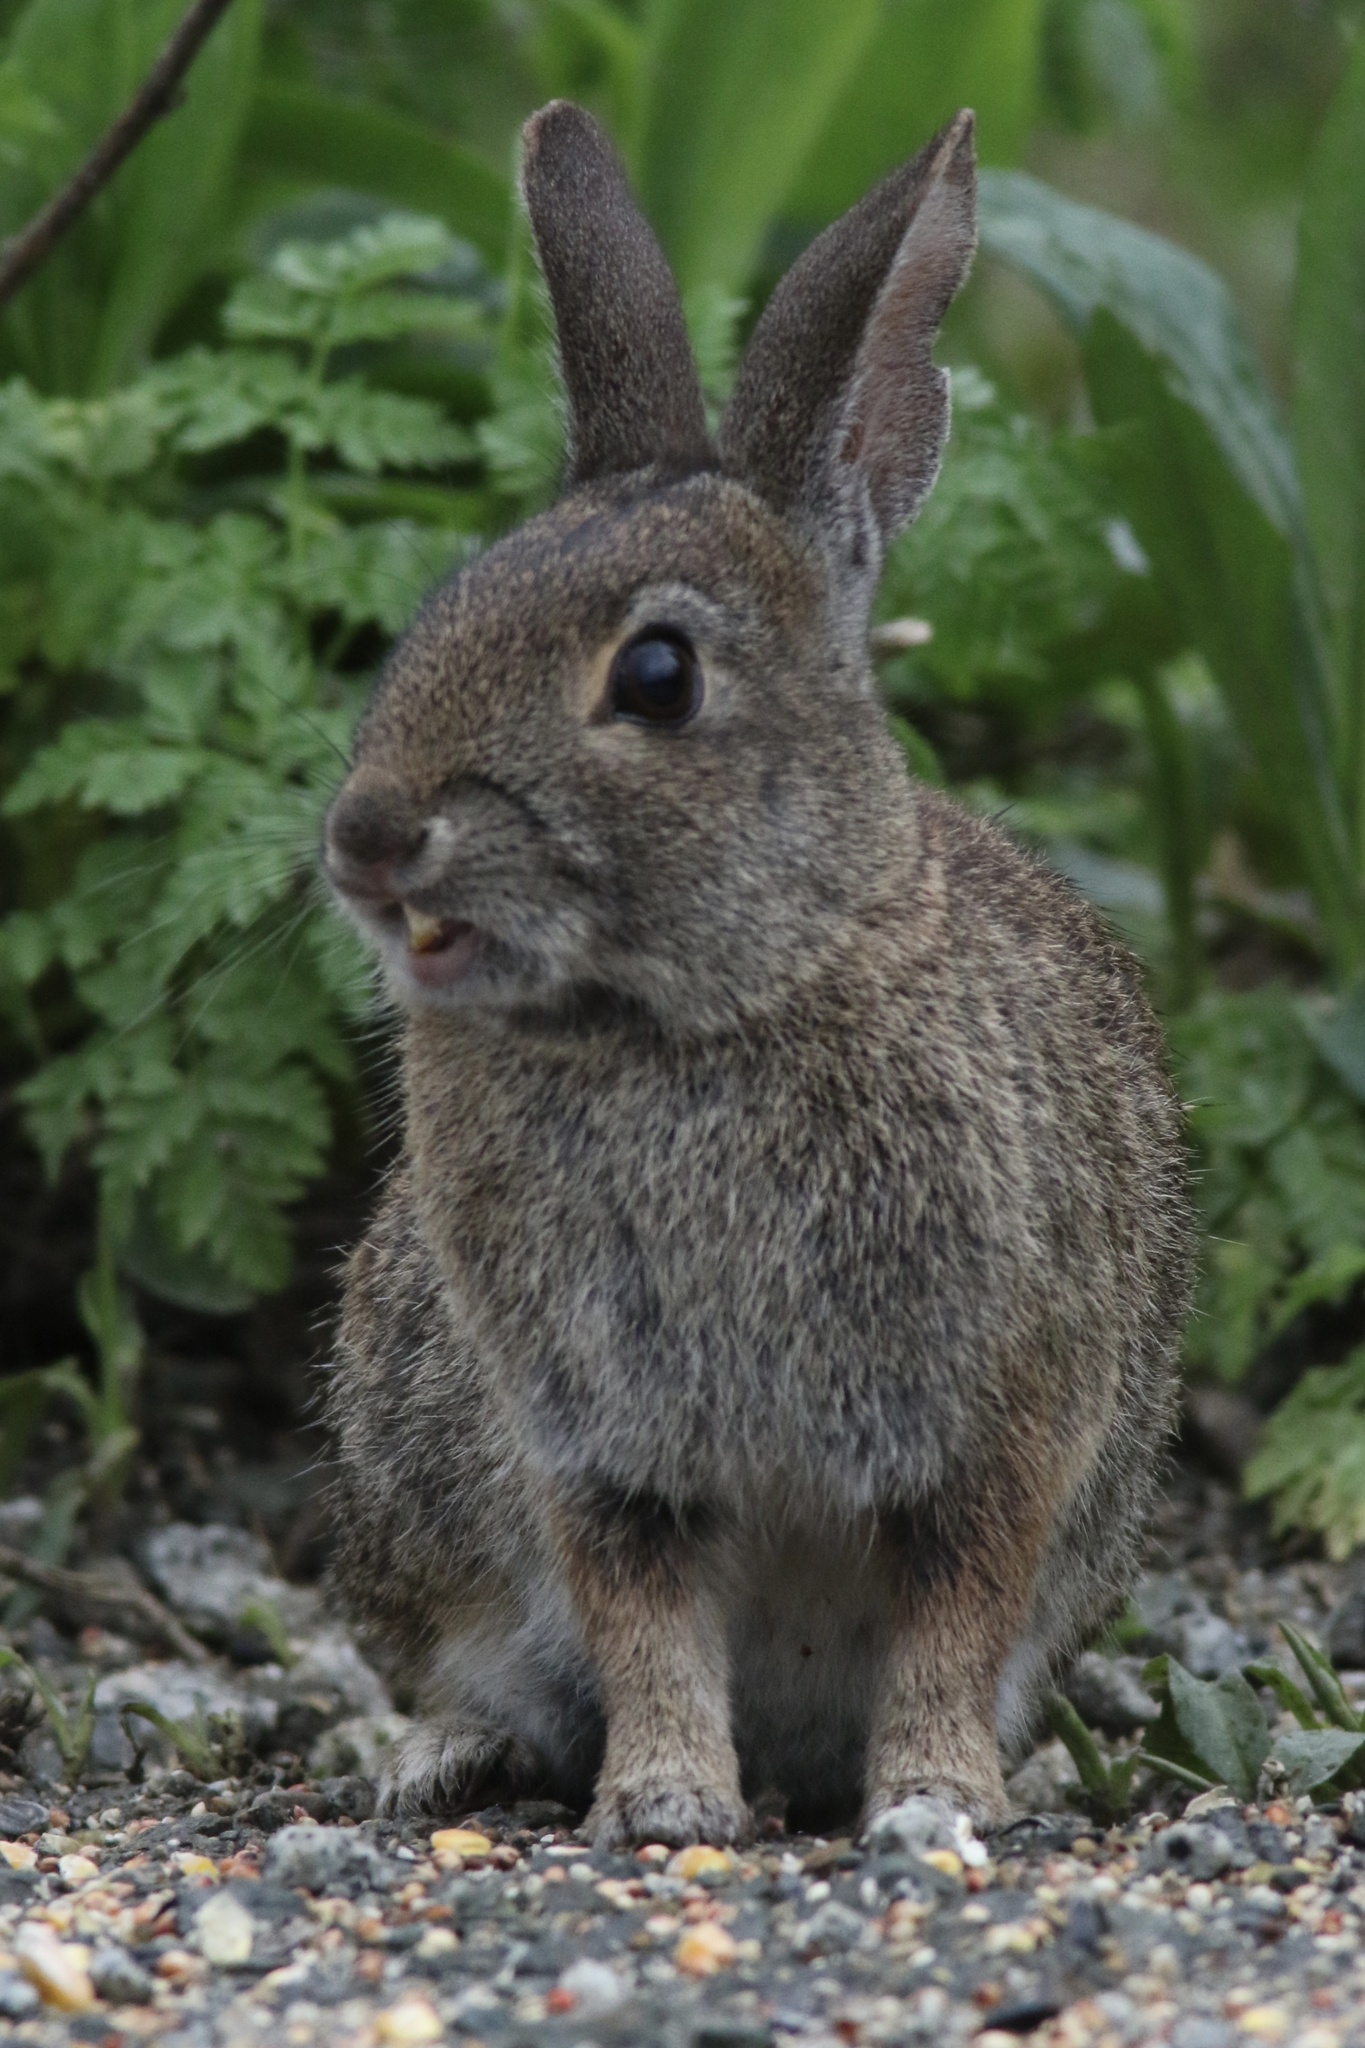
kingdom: Animalia
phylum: Chordata
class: Mammalia
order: Lagomorpha
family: Leporidae
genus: Sylvilagus
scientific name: Sylvilagus bachmani
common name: Brush rabbit
